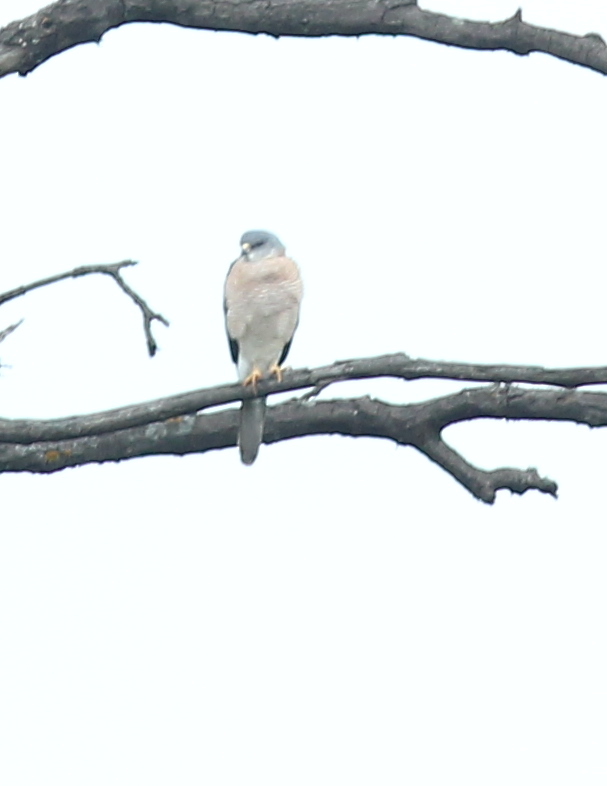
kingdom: Animalia
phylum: Chordata
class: Aves
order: Accipitriformes
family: Accipitridae
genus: Accipiter
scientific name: Accipiter brevipes
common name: Levant sparrowhawk
